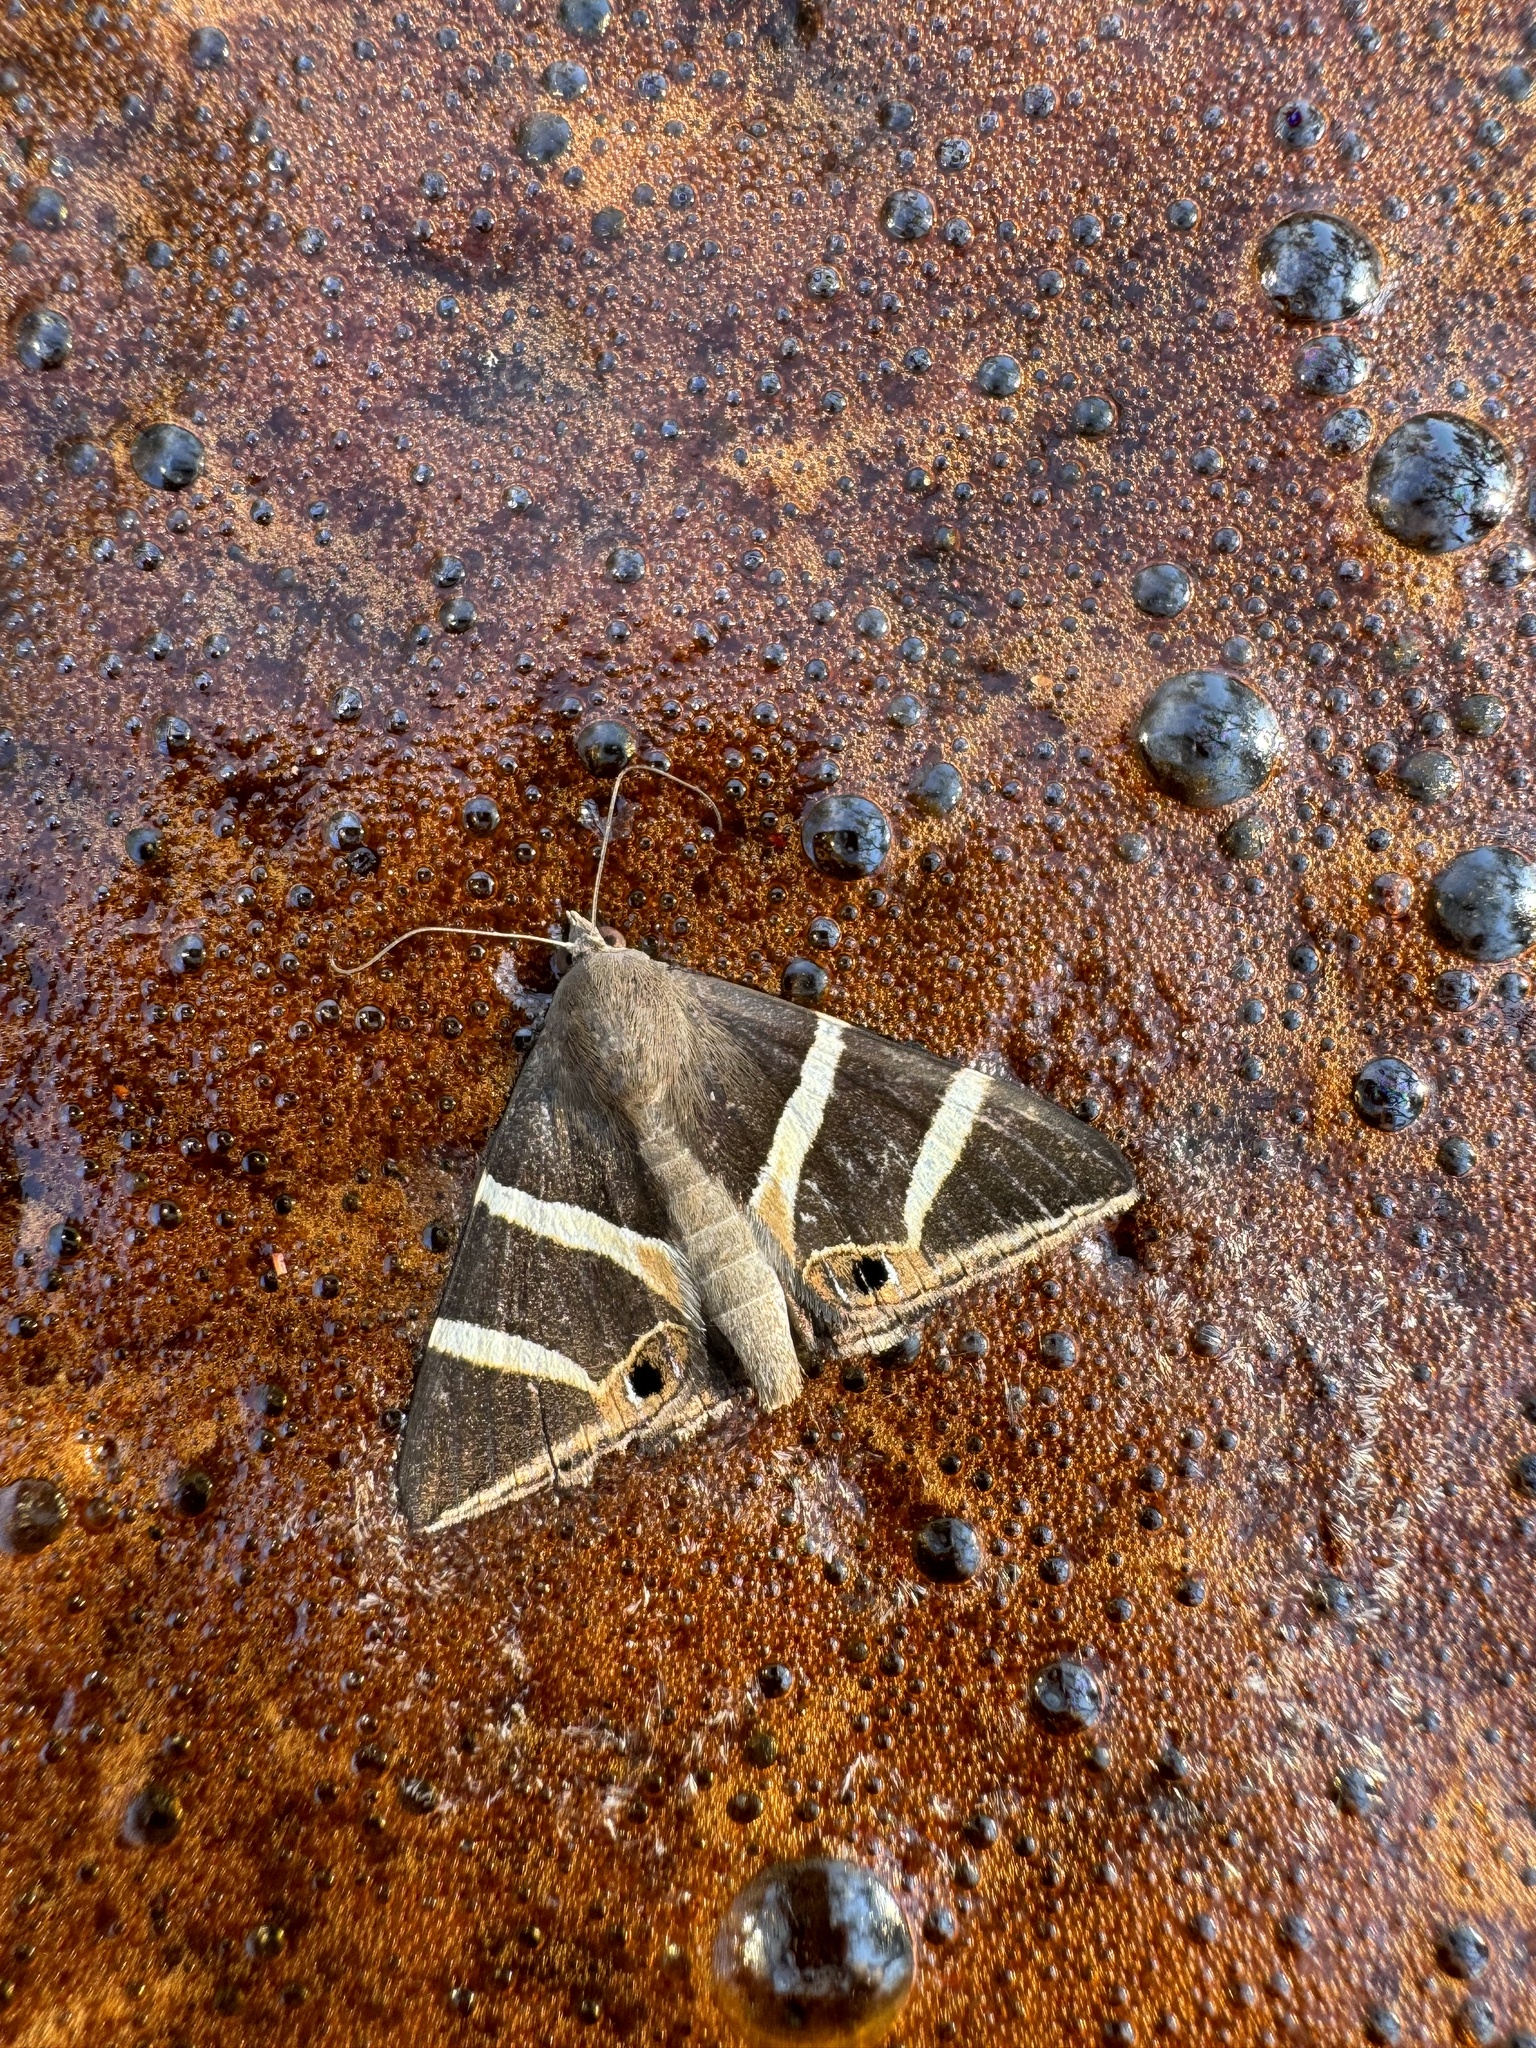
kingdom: Animalia
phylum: Arthropoda
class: Insecta
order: Lepidoptera
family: Erebidae
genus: Grammodes
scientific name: Grammodes oculicola
